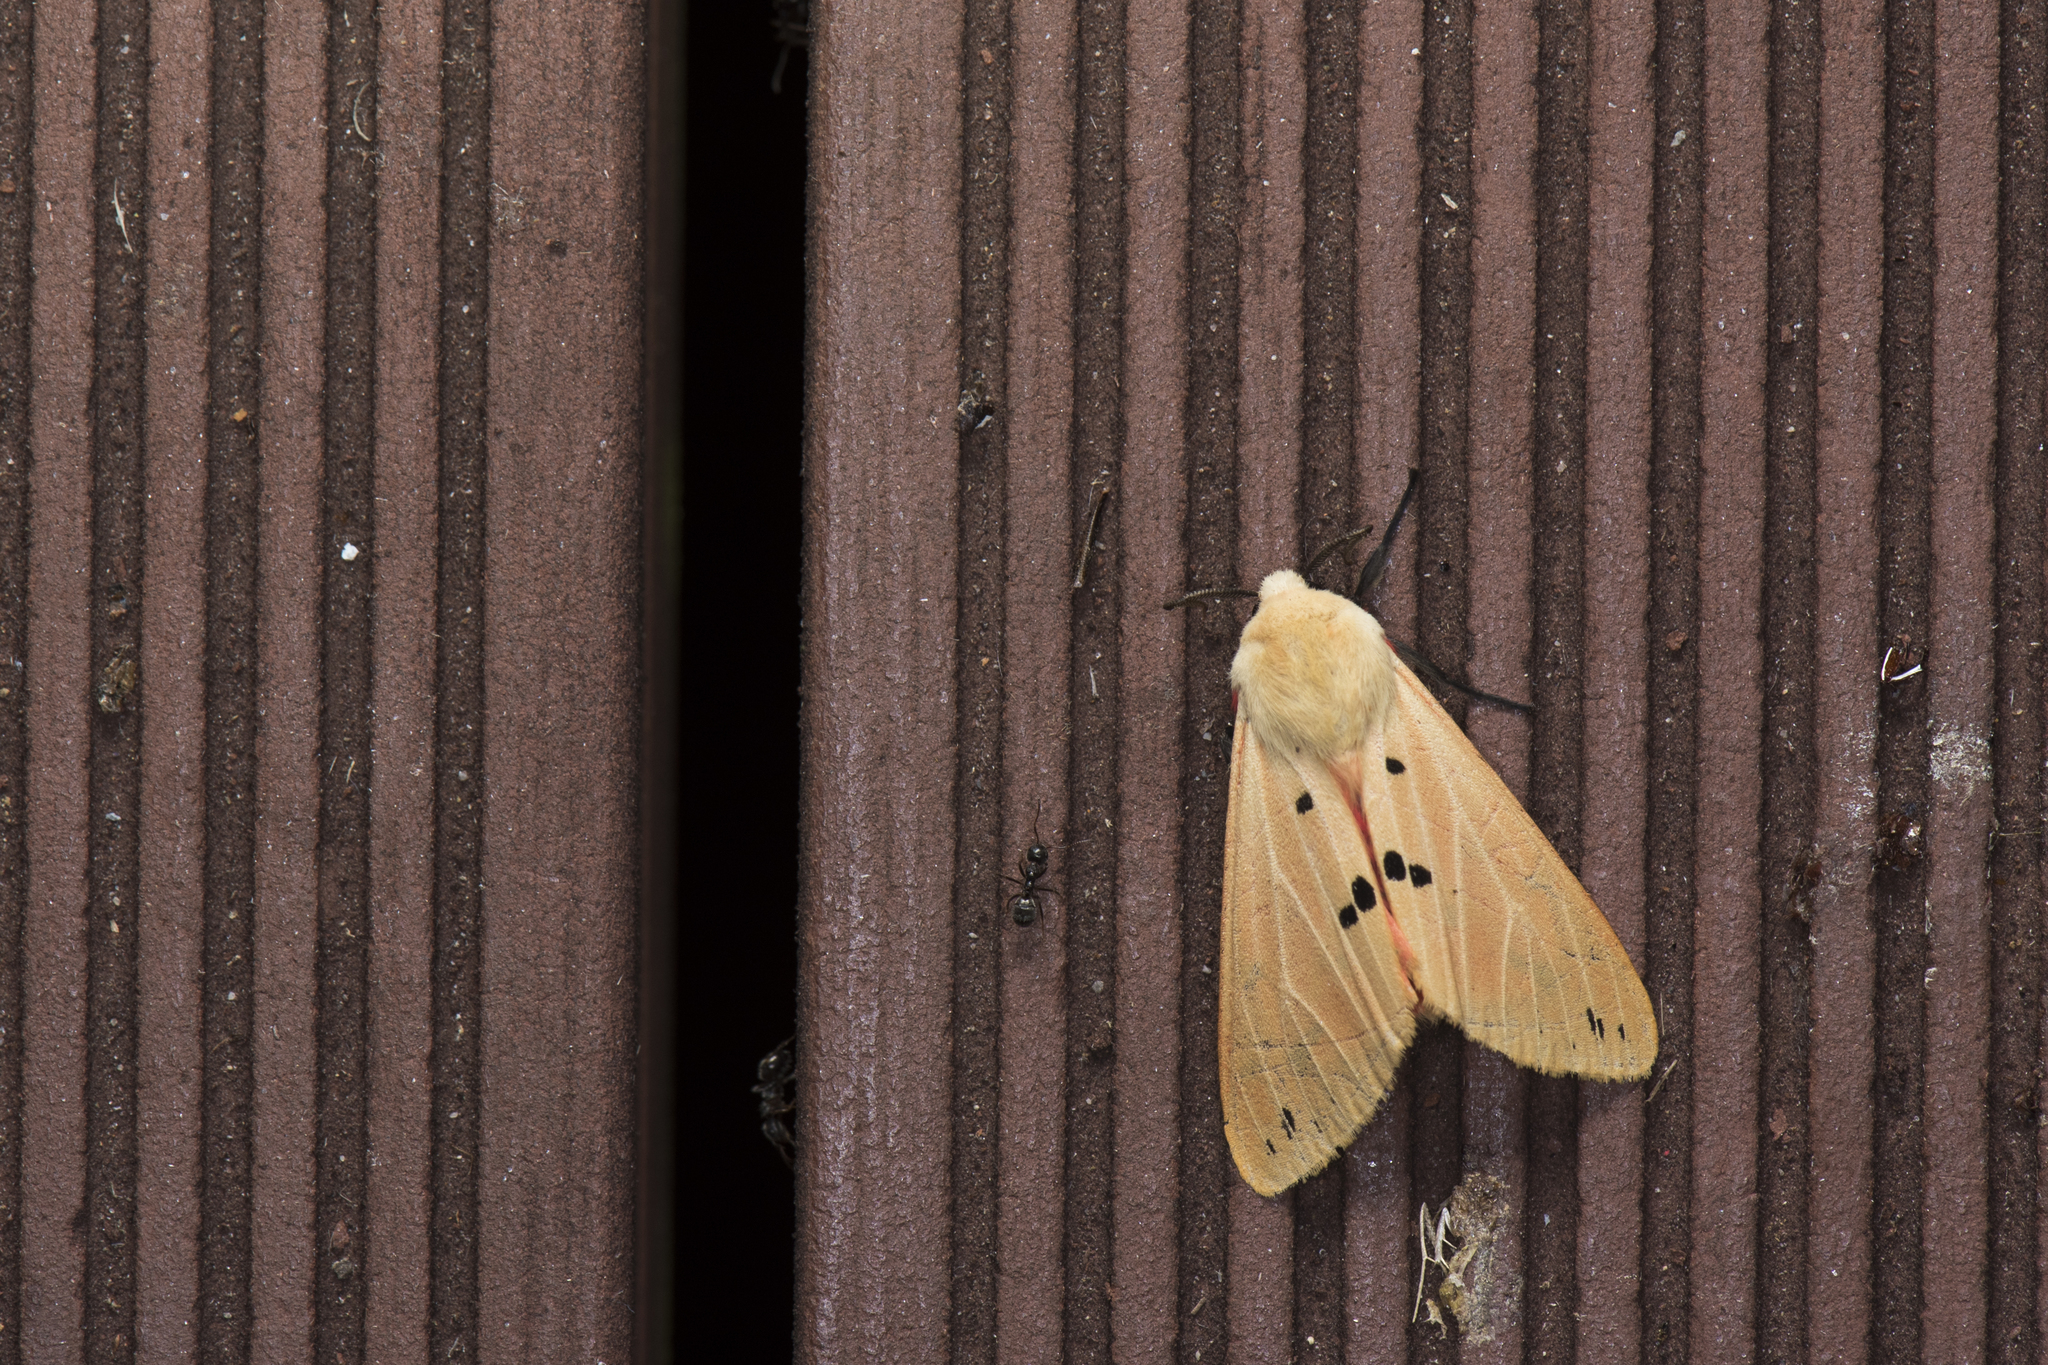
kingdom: Animalia
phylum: Arthropoda
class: Insecta
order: Lepidoptera
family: Erebidae
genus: Spilarctia
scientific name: Spilarctia subcarnea
